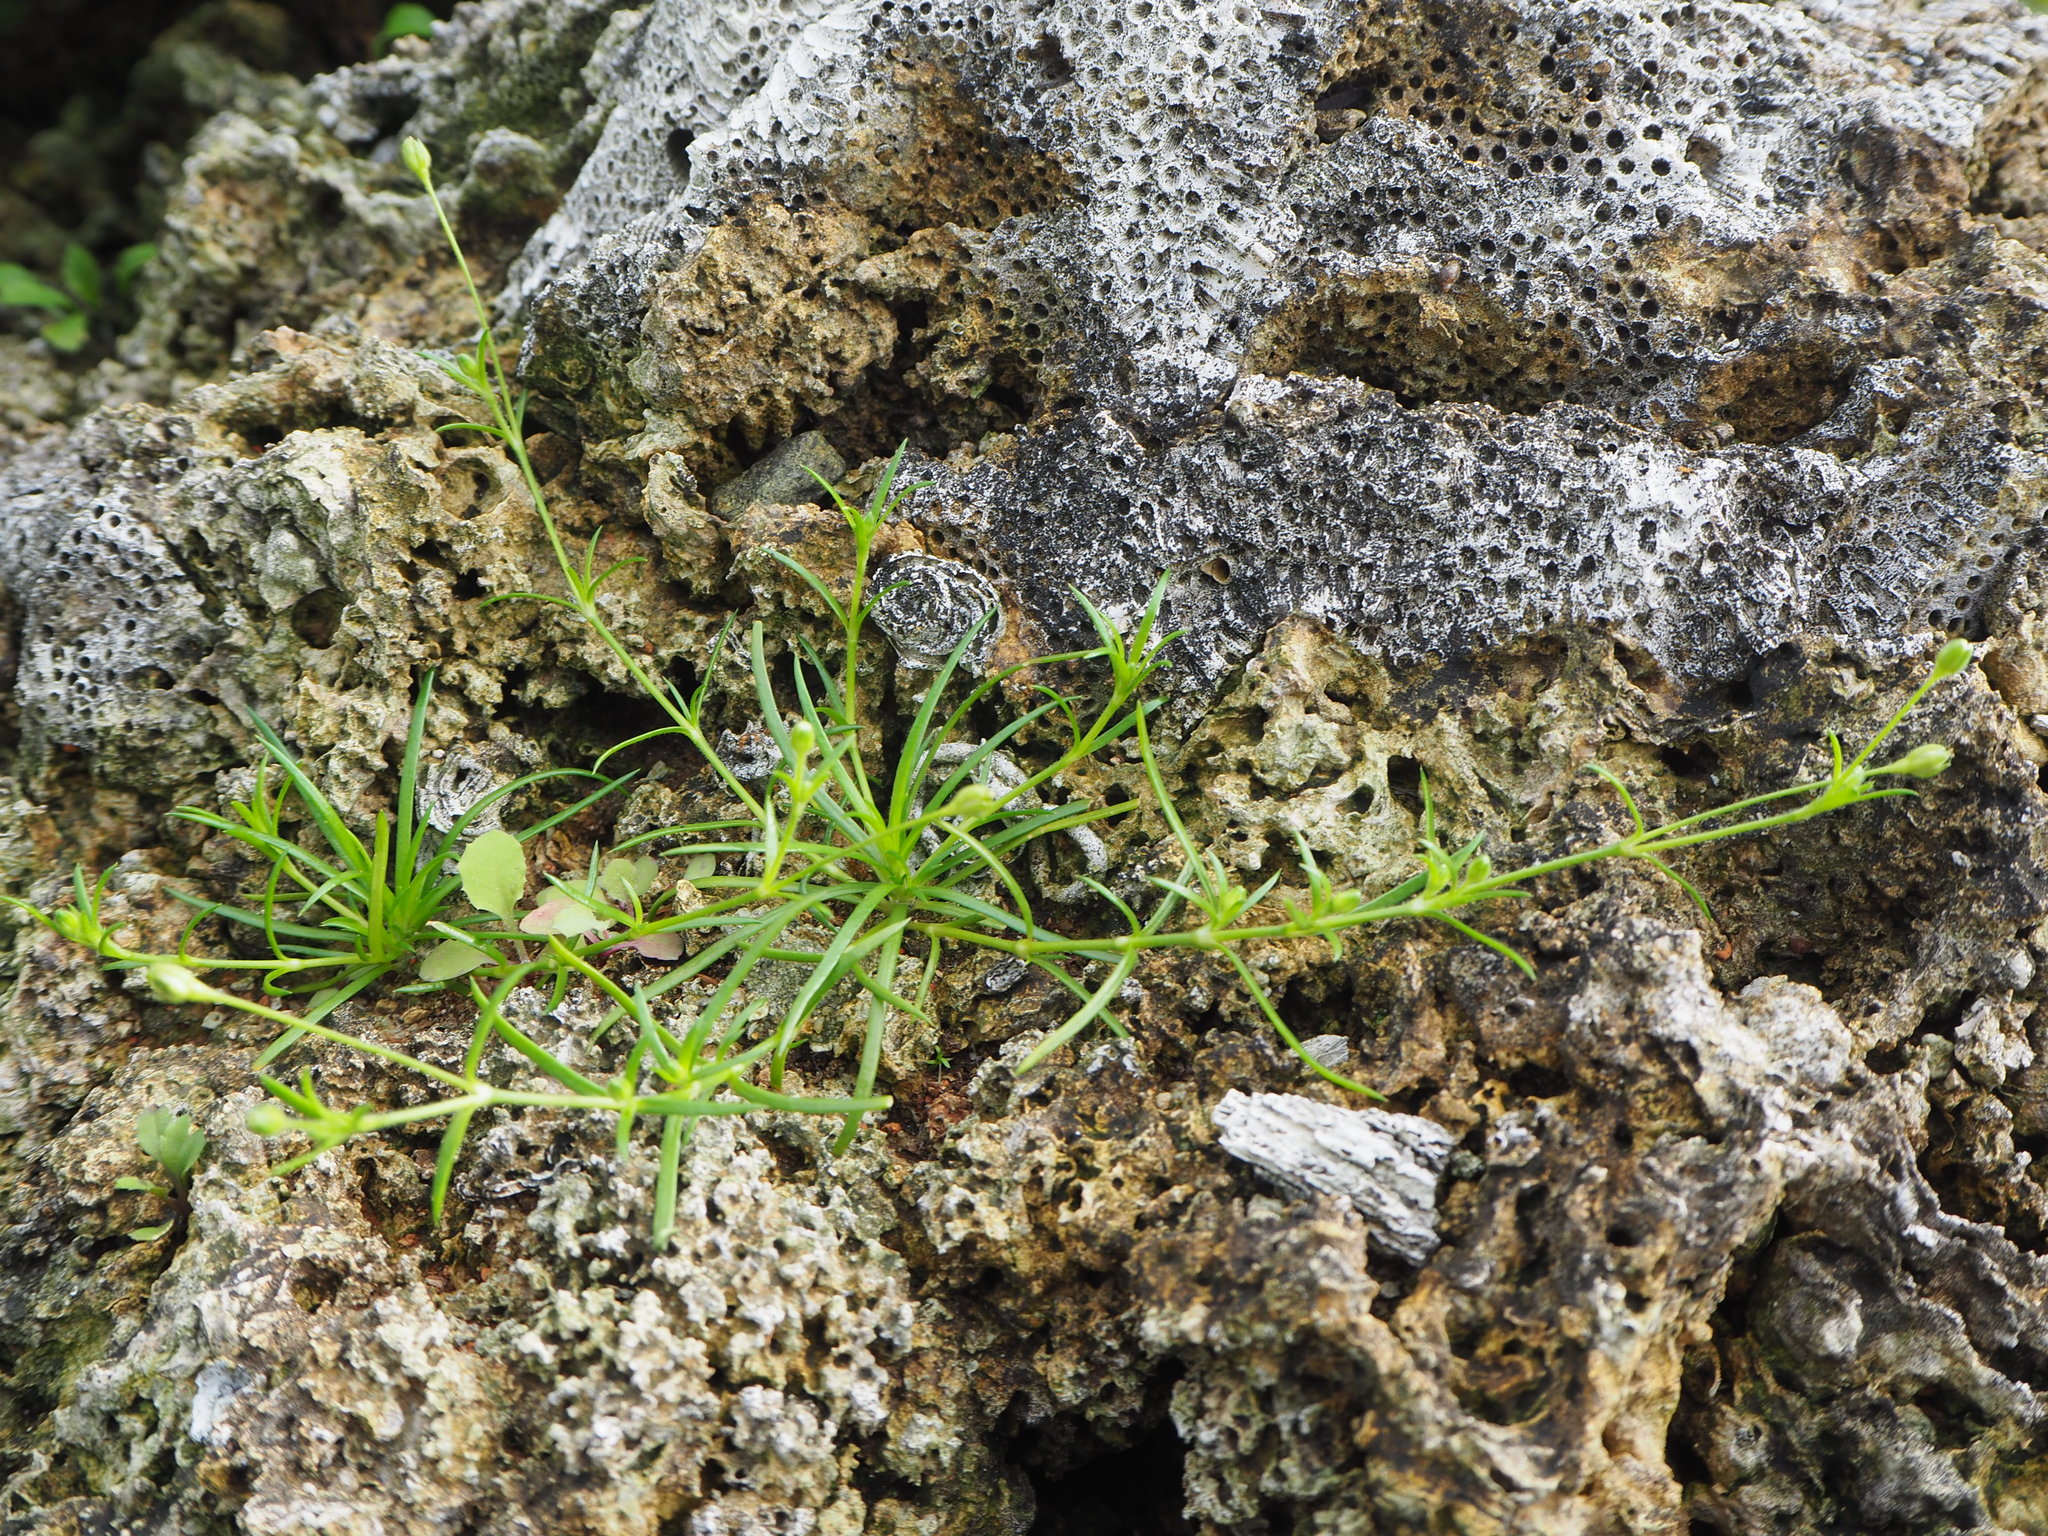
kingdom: Plantae
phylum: Tracheophyta
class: Magnoliopsida
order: Caryophyllales
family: Caryophyllaceae
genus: Sagina
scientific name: Sagina japonica
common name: Japanese pearlwort
